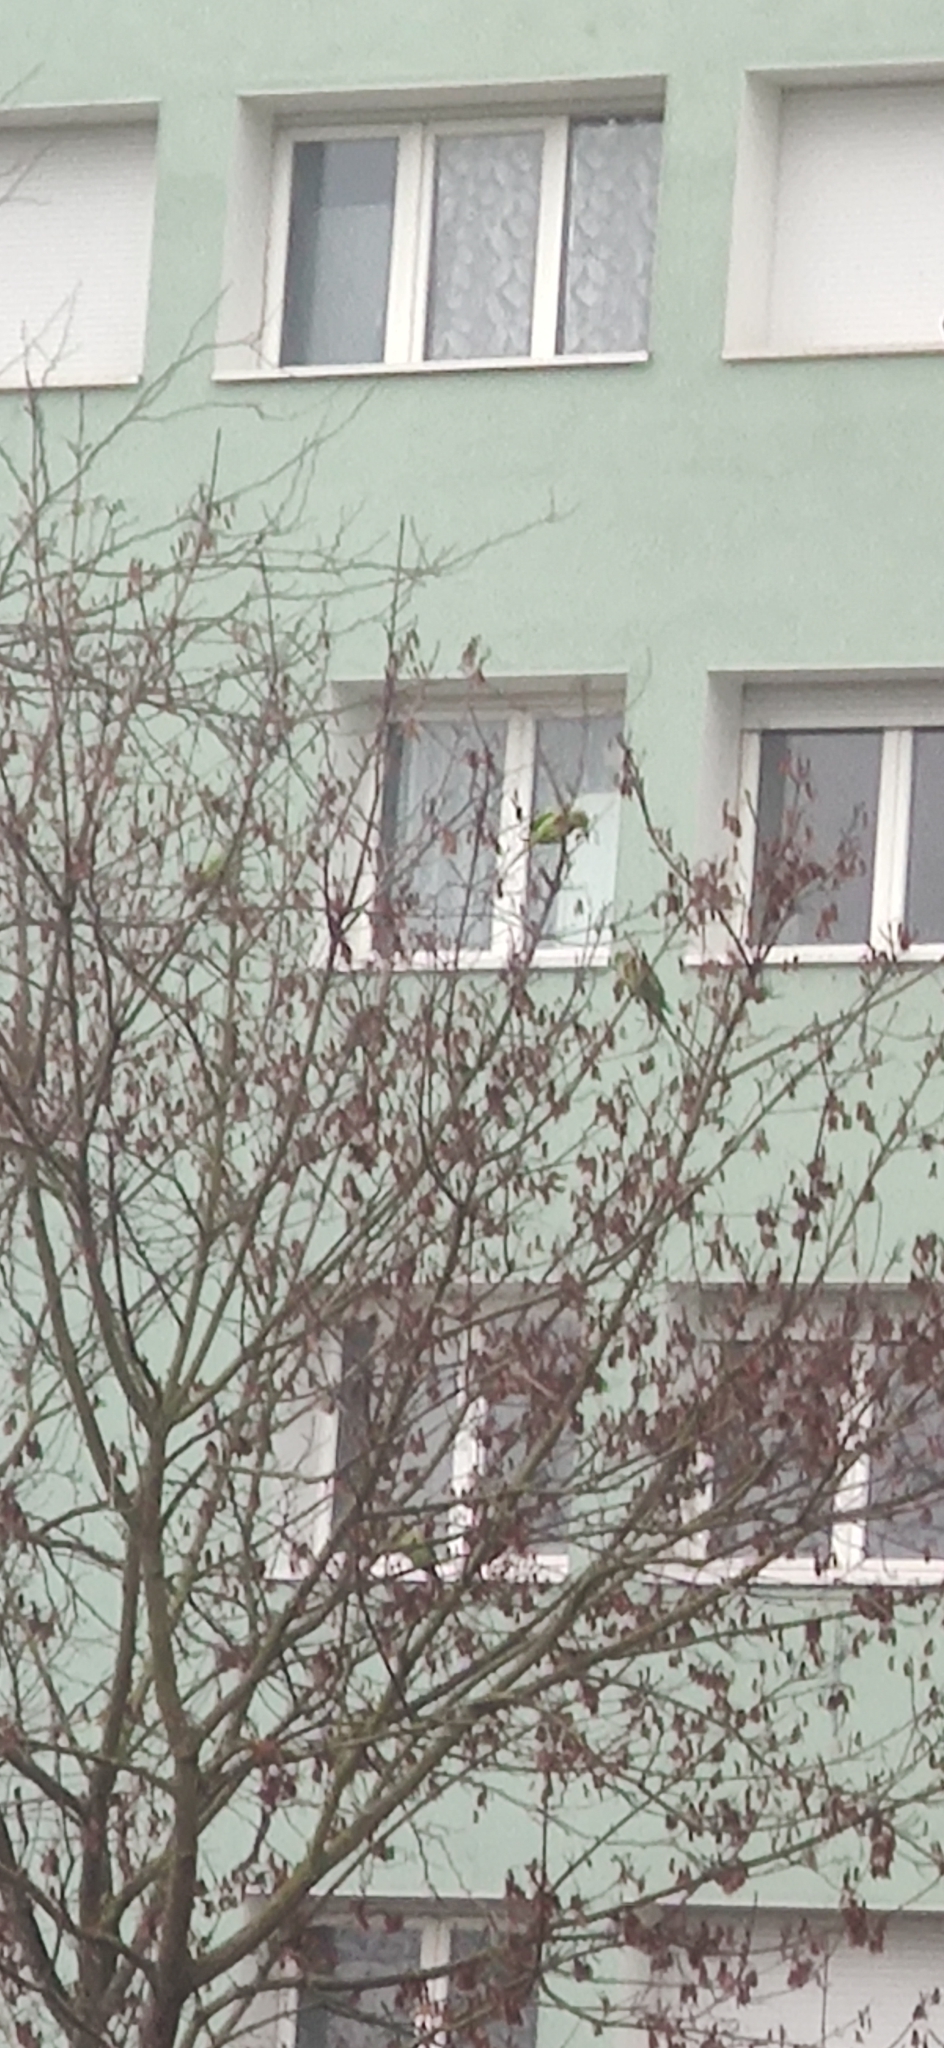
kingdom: Animalia
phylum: Chordata
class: Aves
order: Psittaciformes
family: Psittacidae
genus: Psittacula
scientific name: Psittacula krameri
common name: Rose-ringed parakeet
